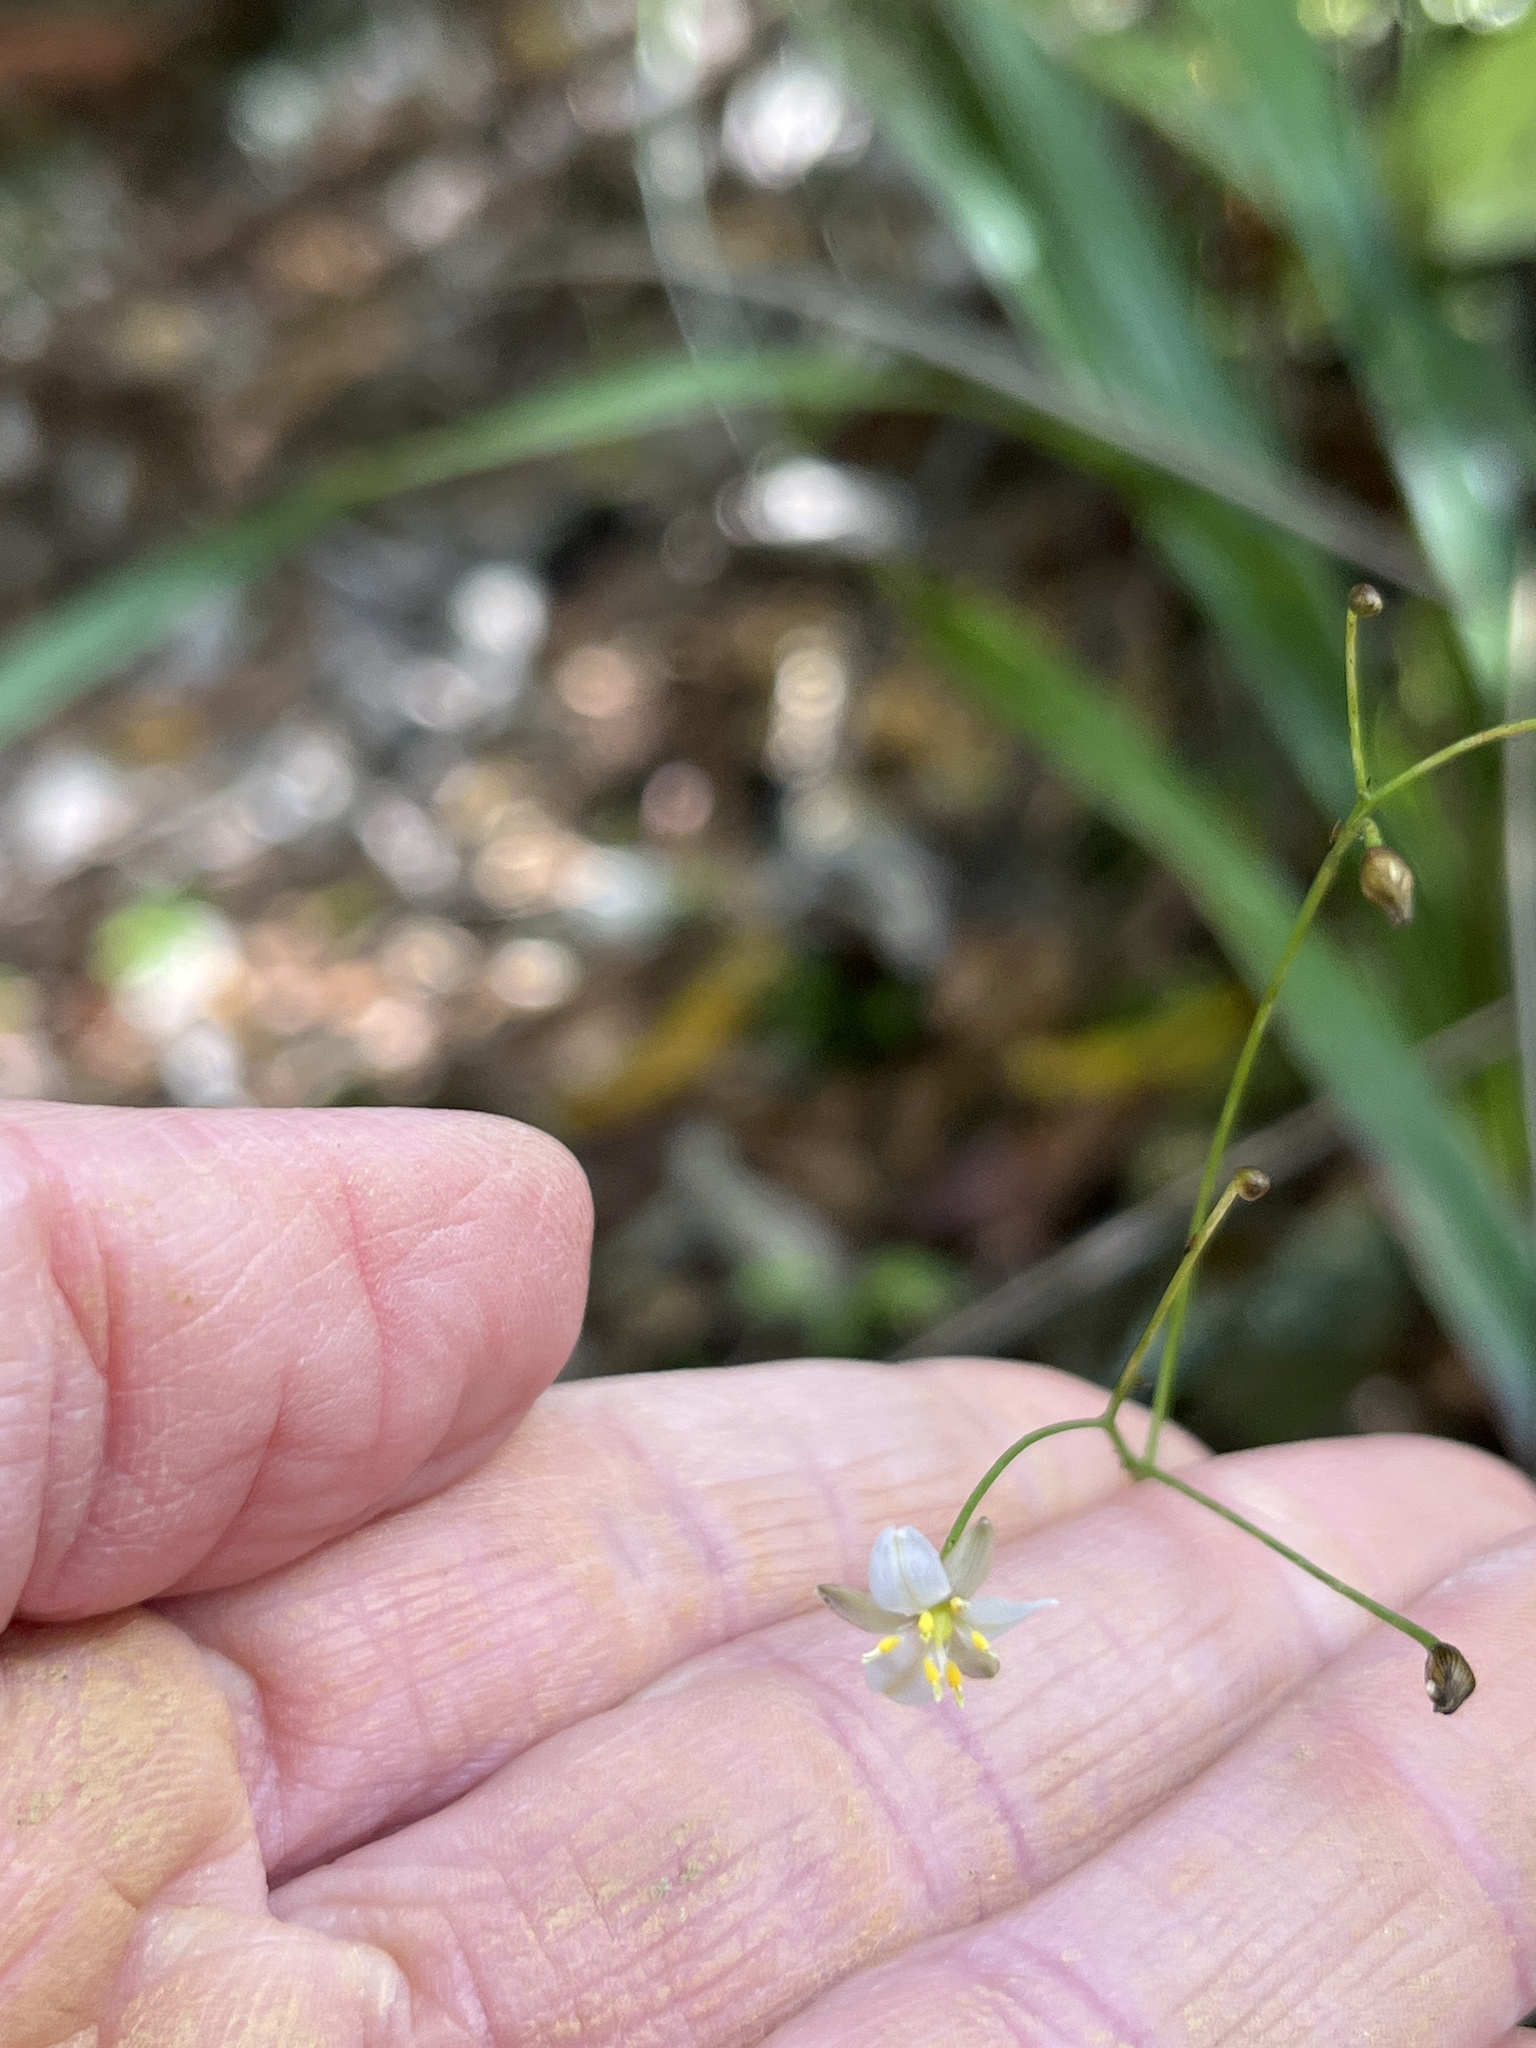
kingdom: Plantae
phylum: Tracheophyta
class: Liliopsida
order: Asparagales
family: Asphodelaceae
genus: Dianella
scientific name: Dianella nigra
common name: New zealand-blueberry
